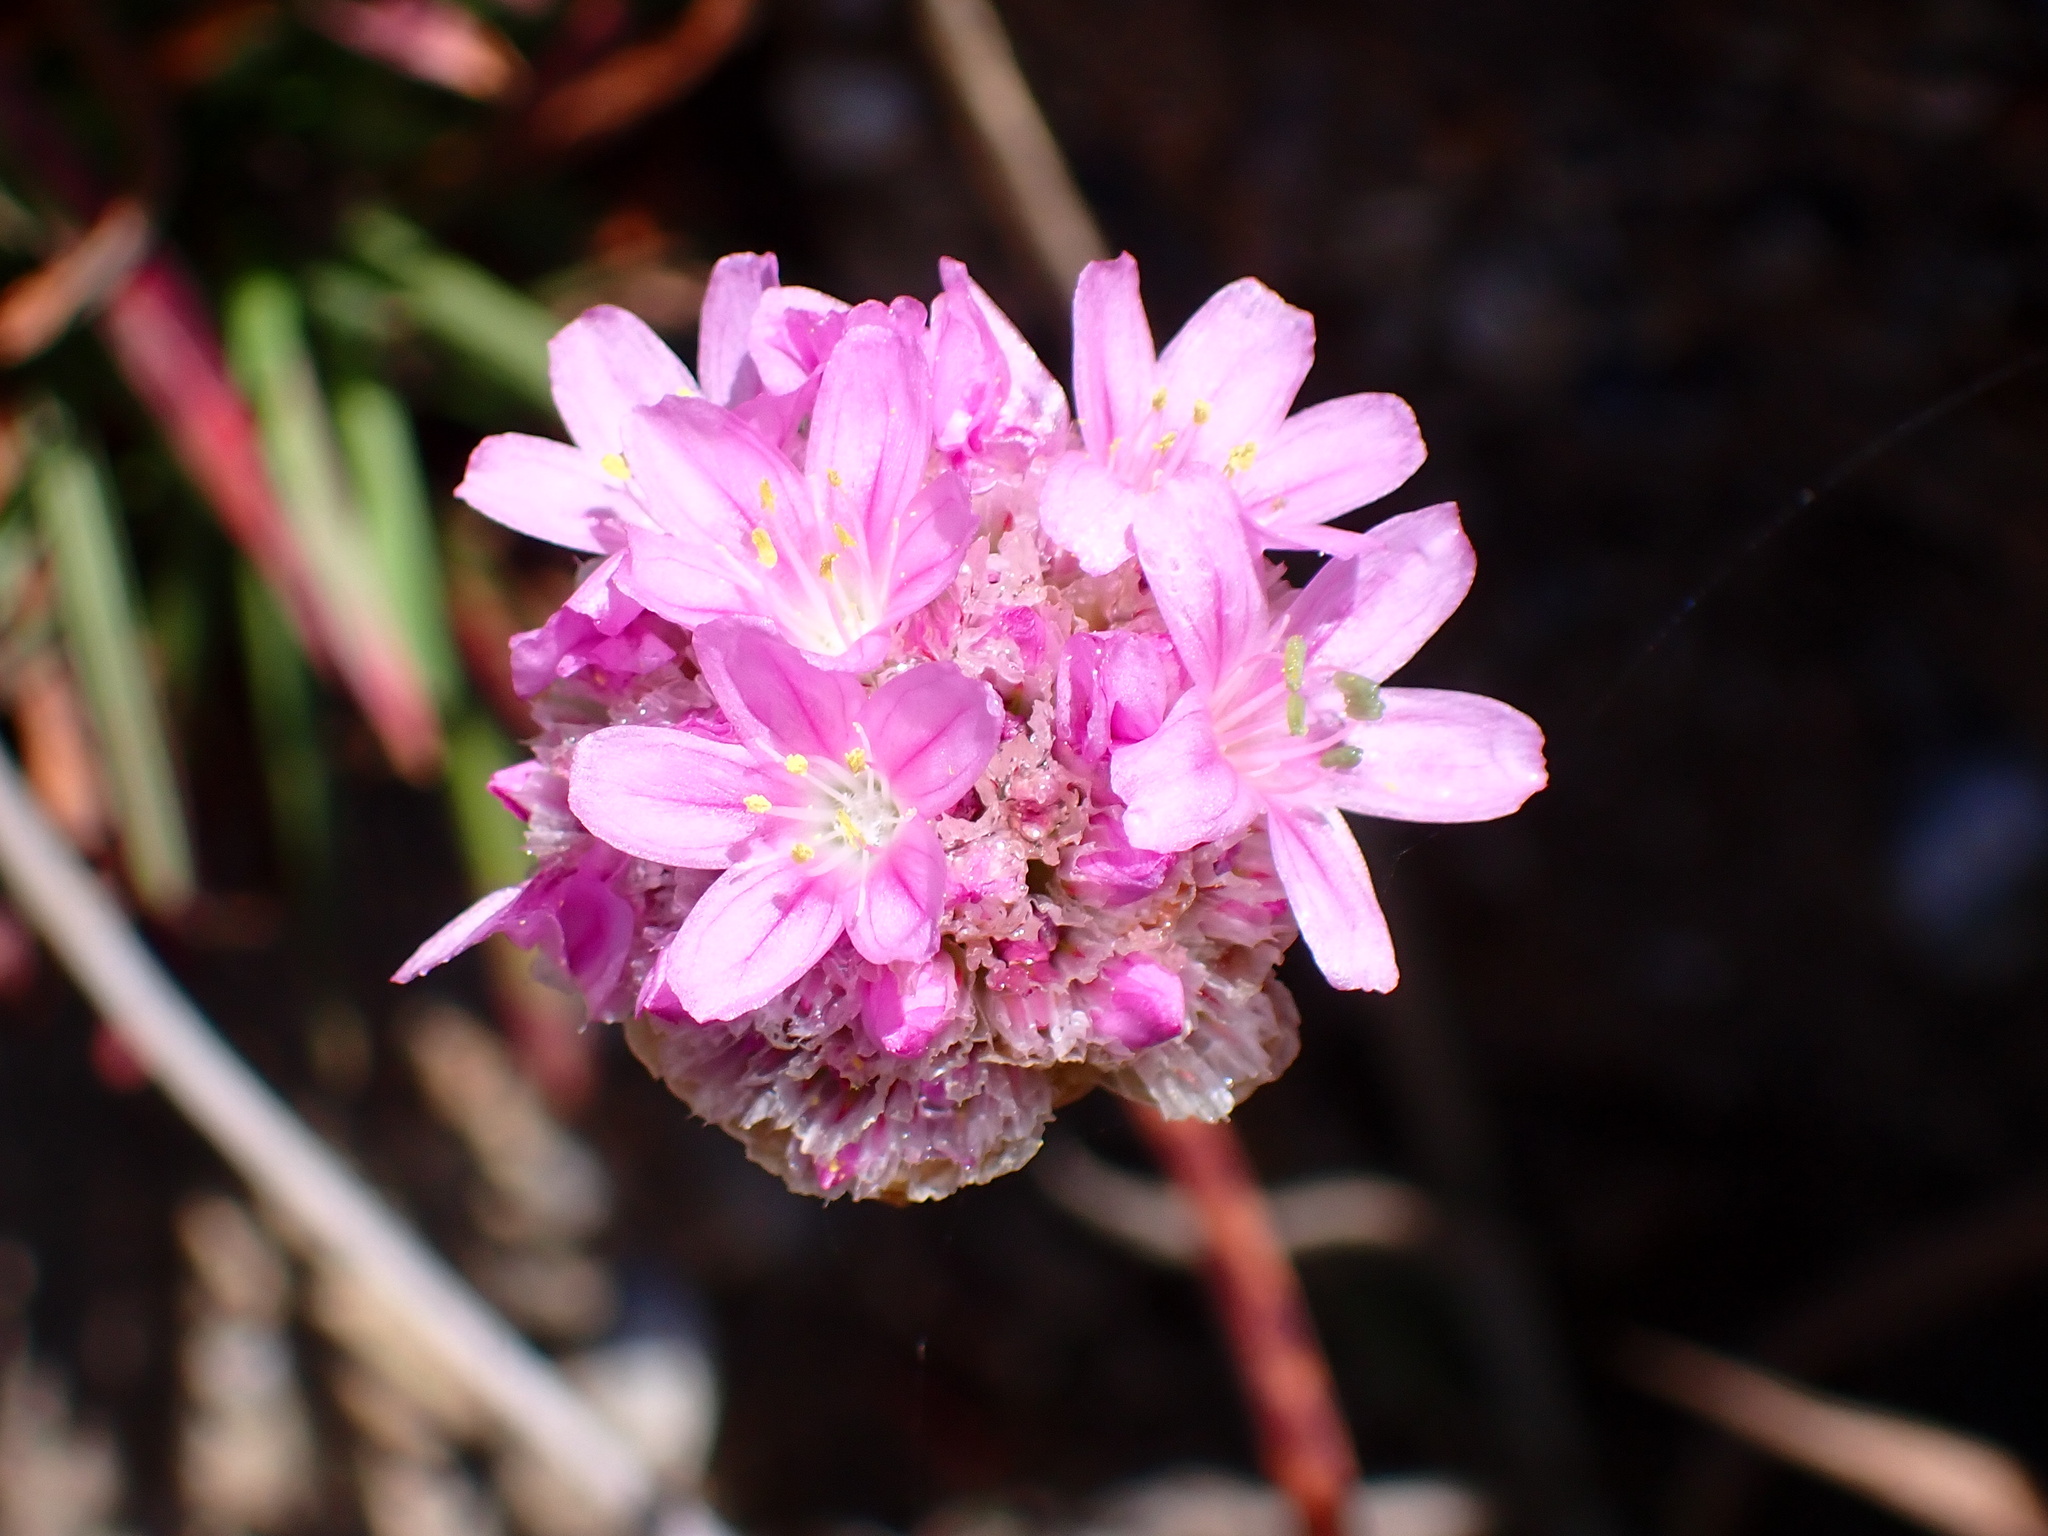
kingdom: Plantae
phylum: Tracheophyta
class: Magnoliopsida
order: Caryophyllales
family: Plumbaginaceae
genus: Armeria
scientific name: Armeria maritima
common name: Thrift
